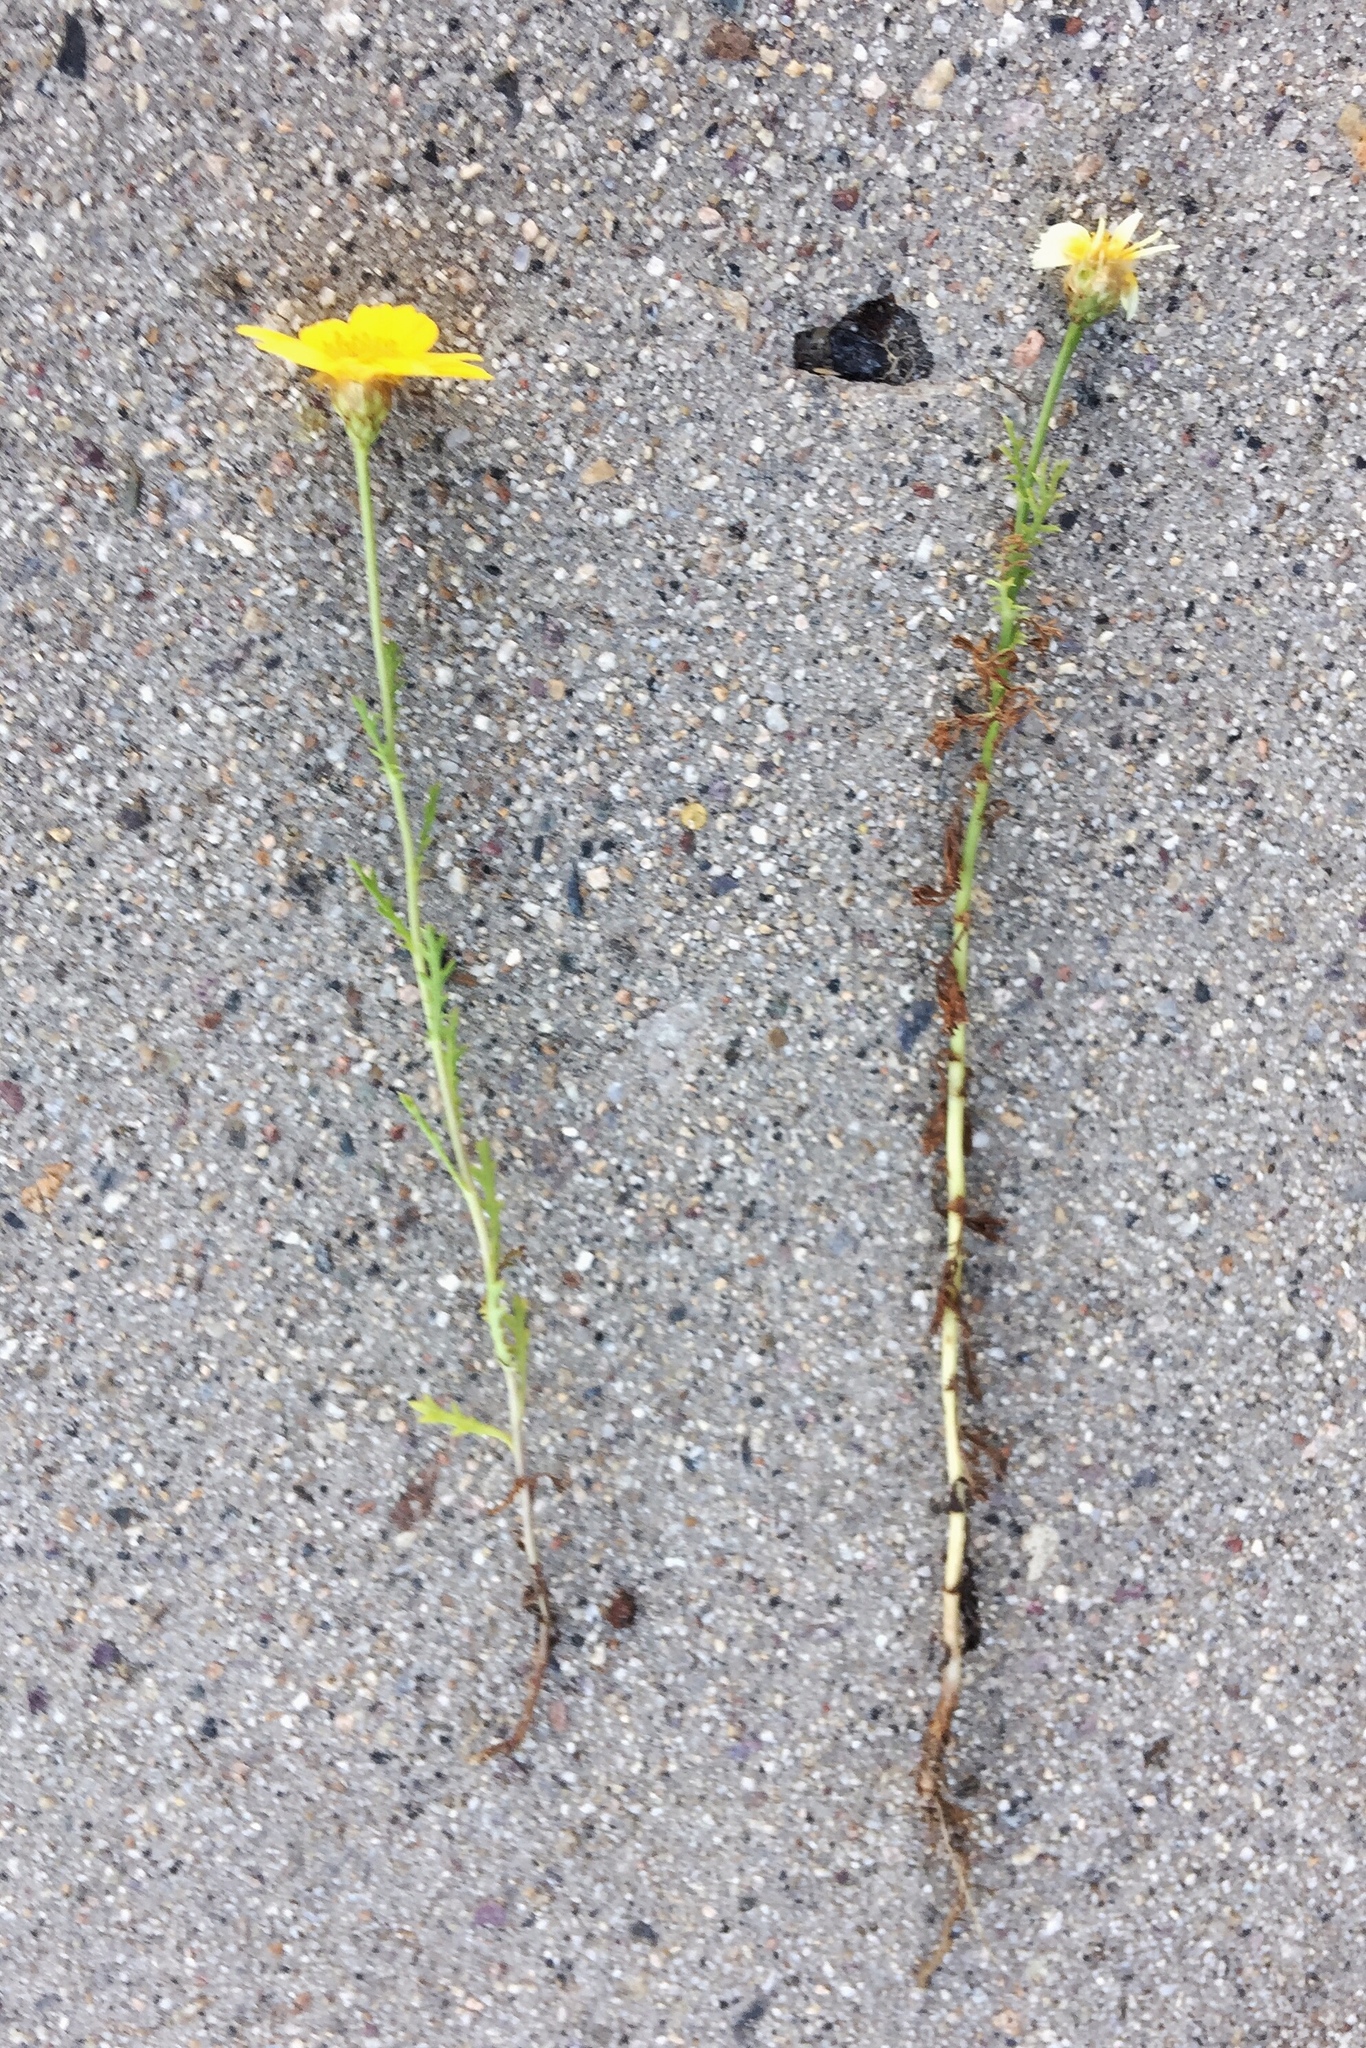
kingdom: Plantae
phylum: Tracheophyta
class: Magnoliopsida
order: Asterales
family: Asteraceae
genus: Glebionis
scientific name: Glebionis coronaria
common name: Crowndaisy
